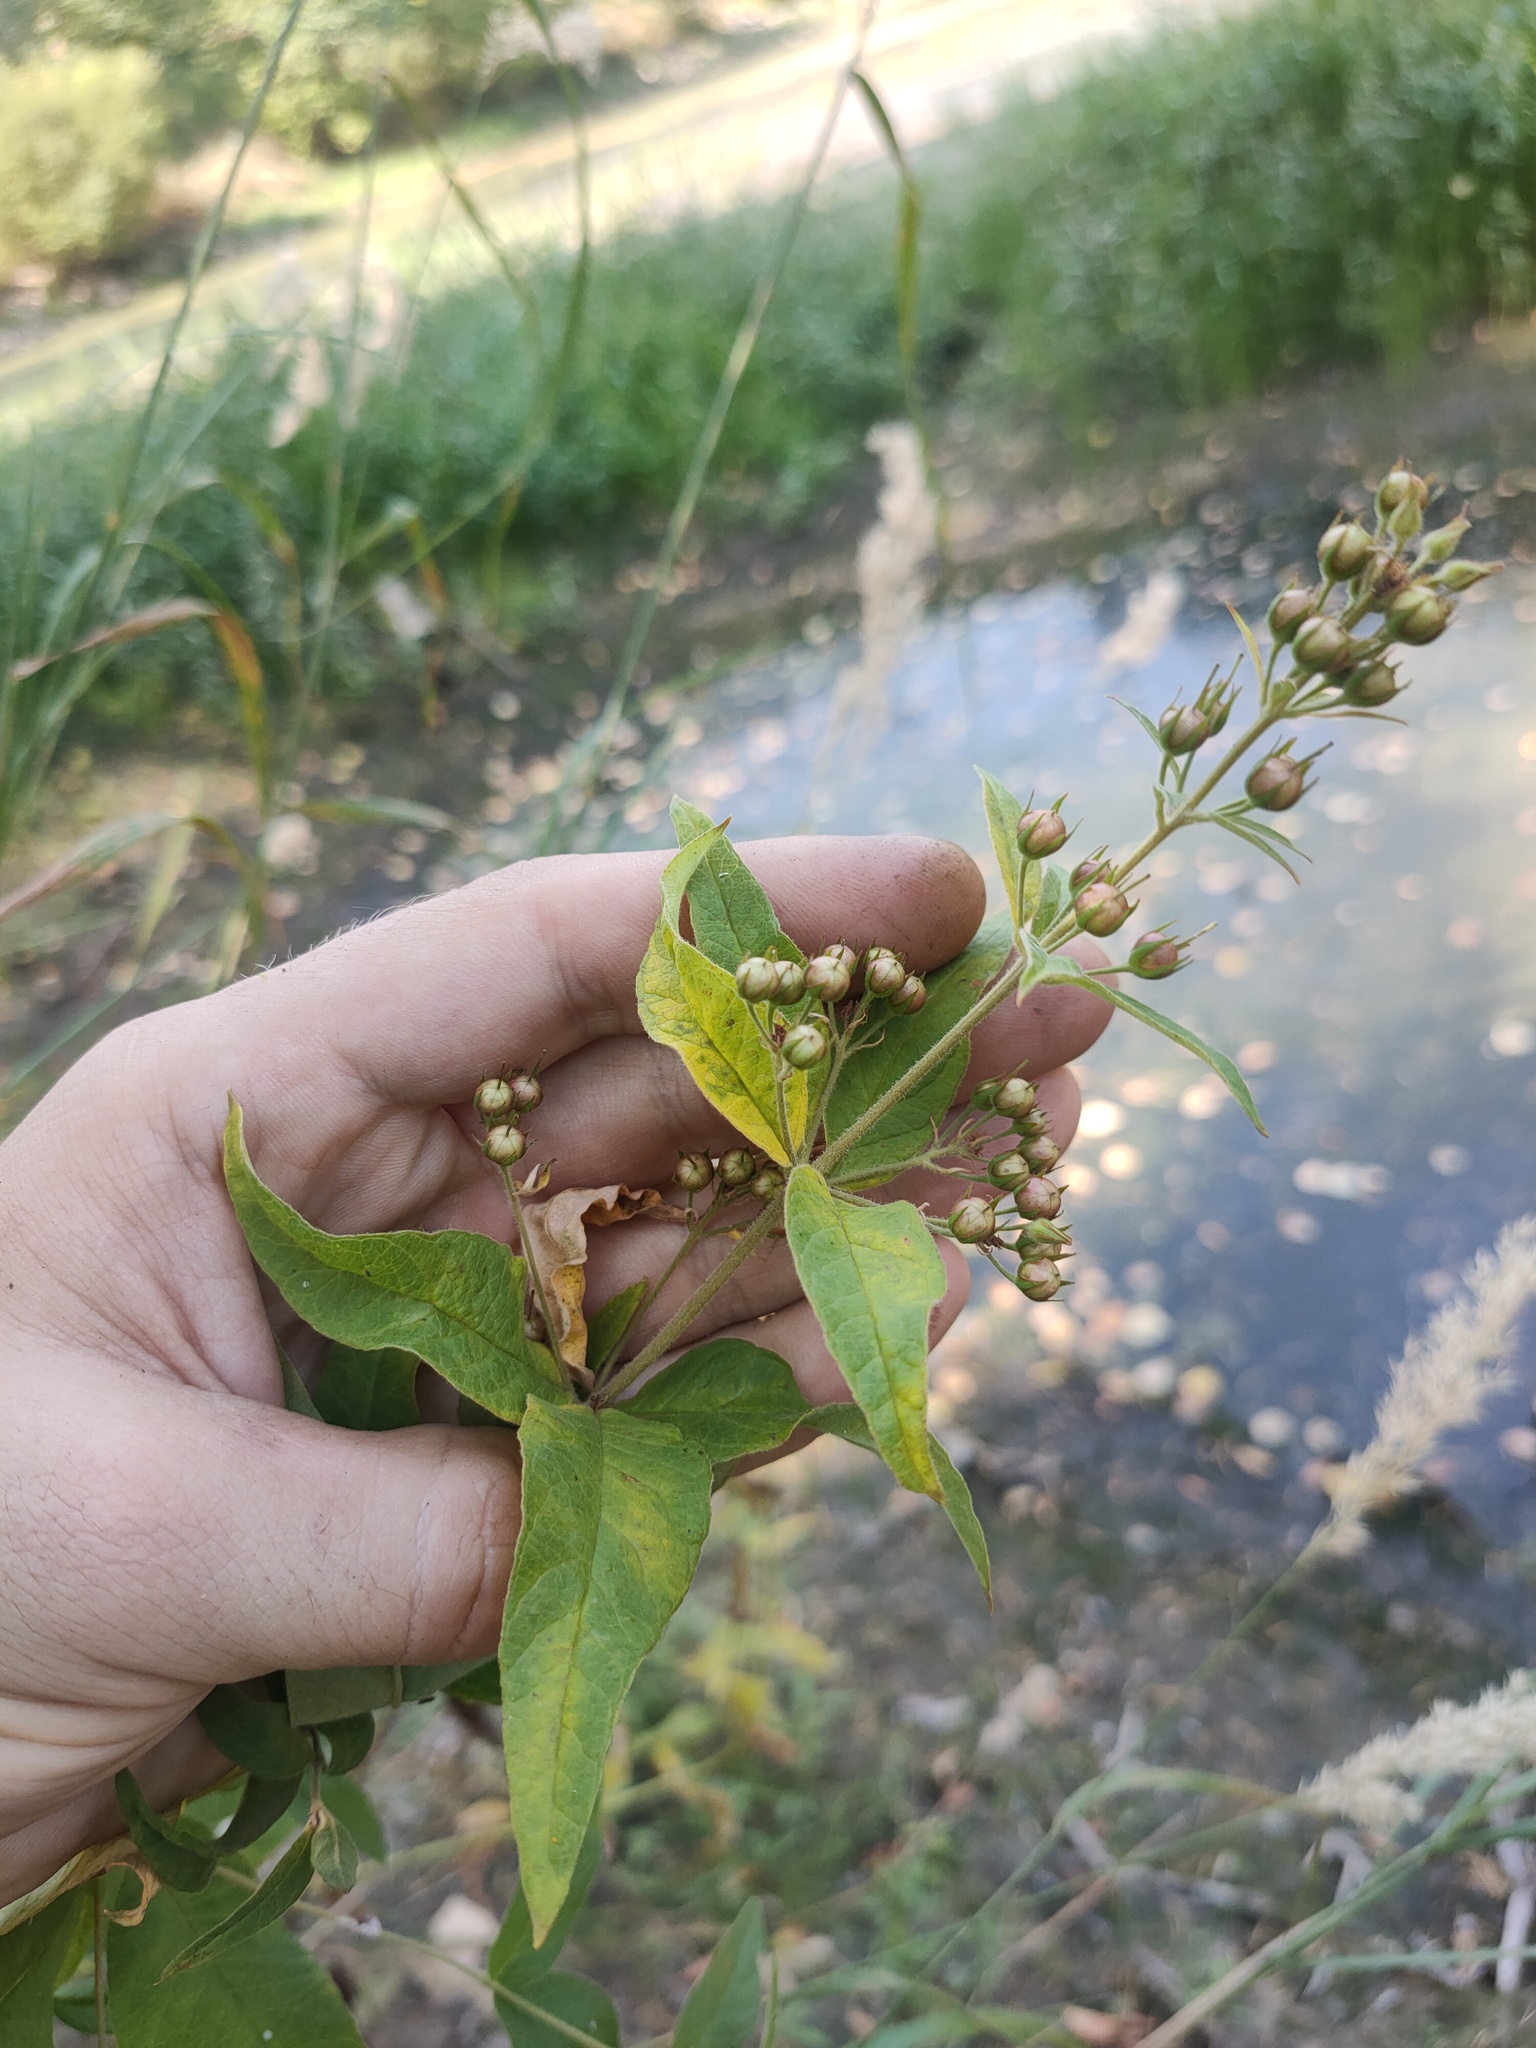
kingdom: Plantae
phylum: Tracheophyta
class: Magnoliopsida
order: Ericales
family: Primulaceae
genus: Lysimachia
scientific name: Lysimachia vulgaris
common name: Yellow loosestrife
